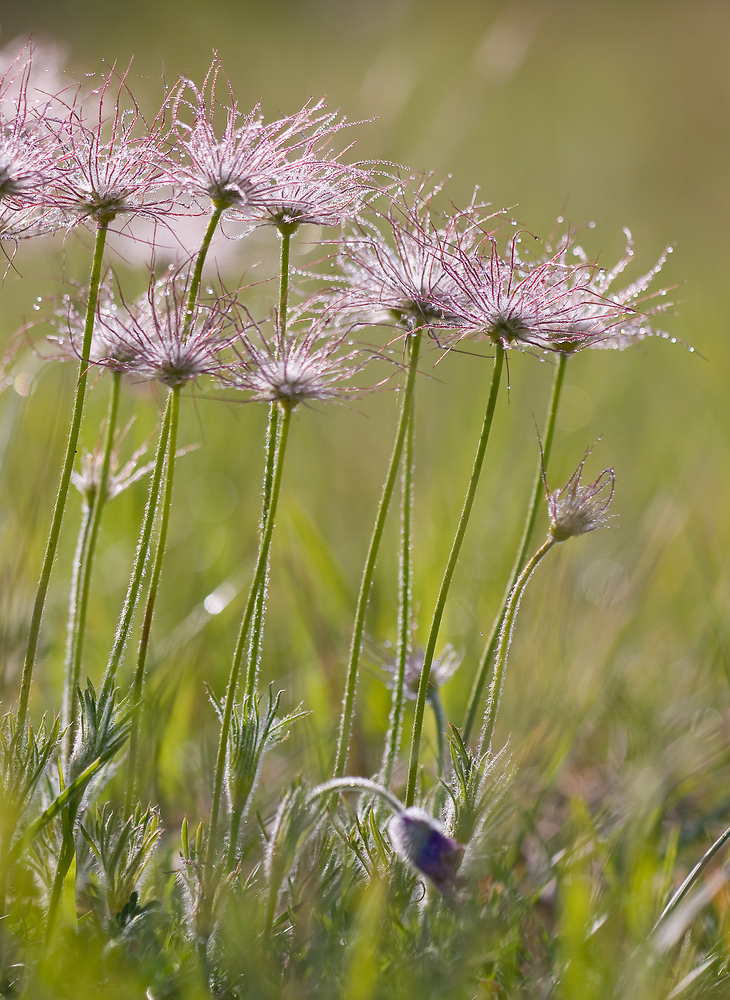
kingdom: Plantae
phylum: Tracheophyta
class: Magnoliopsida
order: Ranunculales
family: Ranunculaceae
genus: Pulsatilla
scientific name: Pulsatilla vulgaris
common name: Pasqueflower
